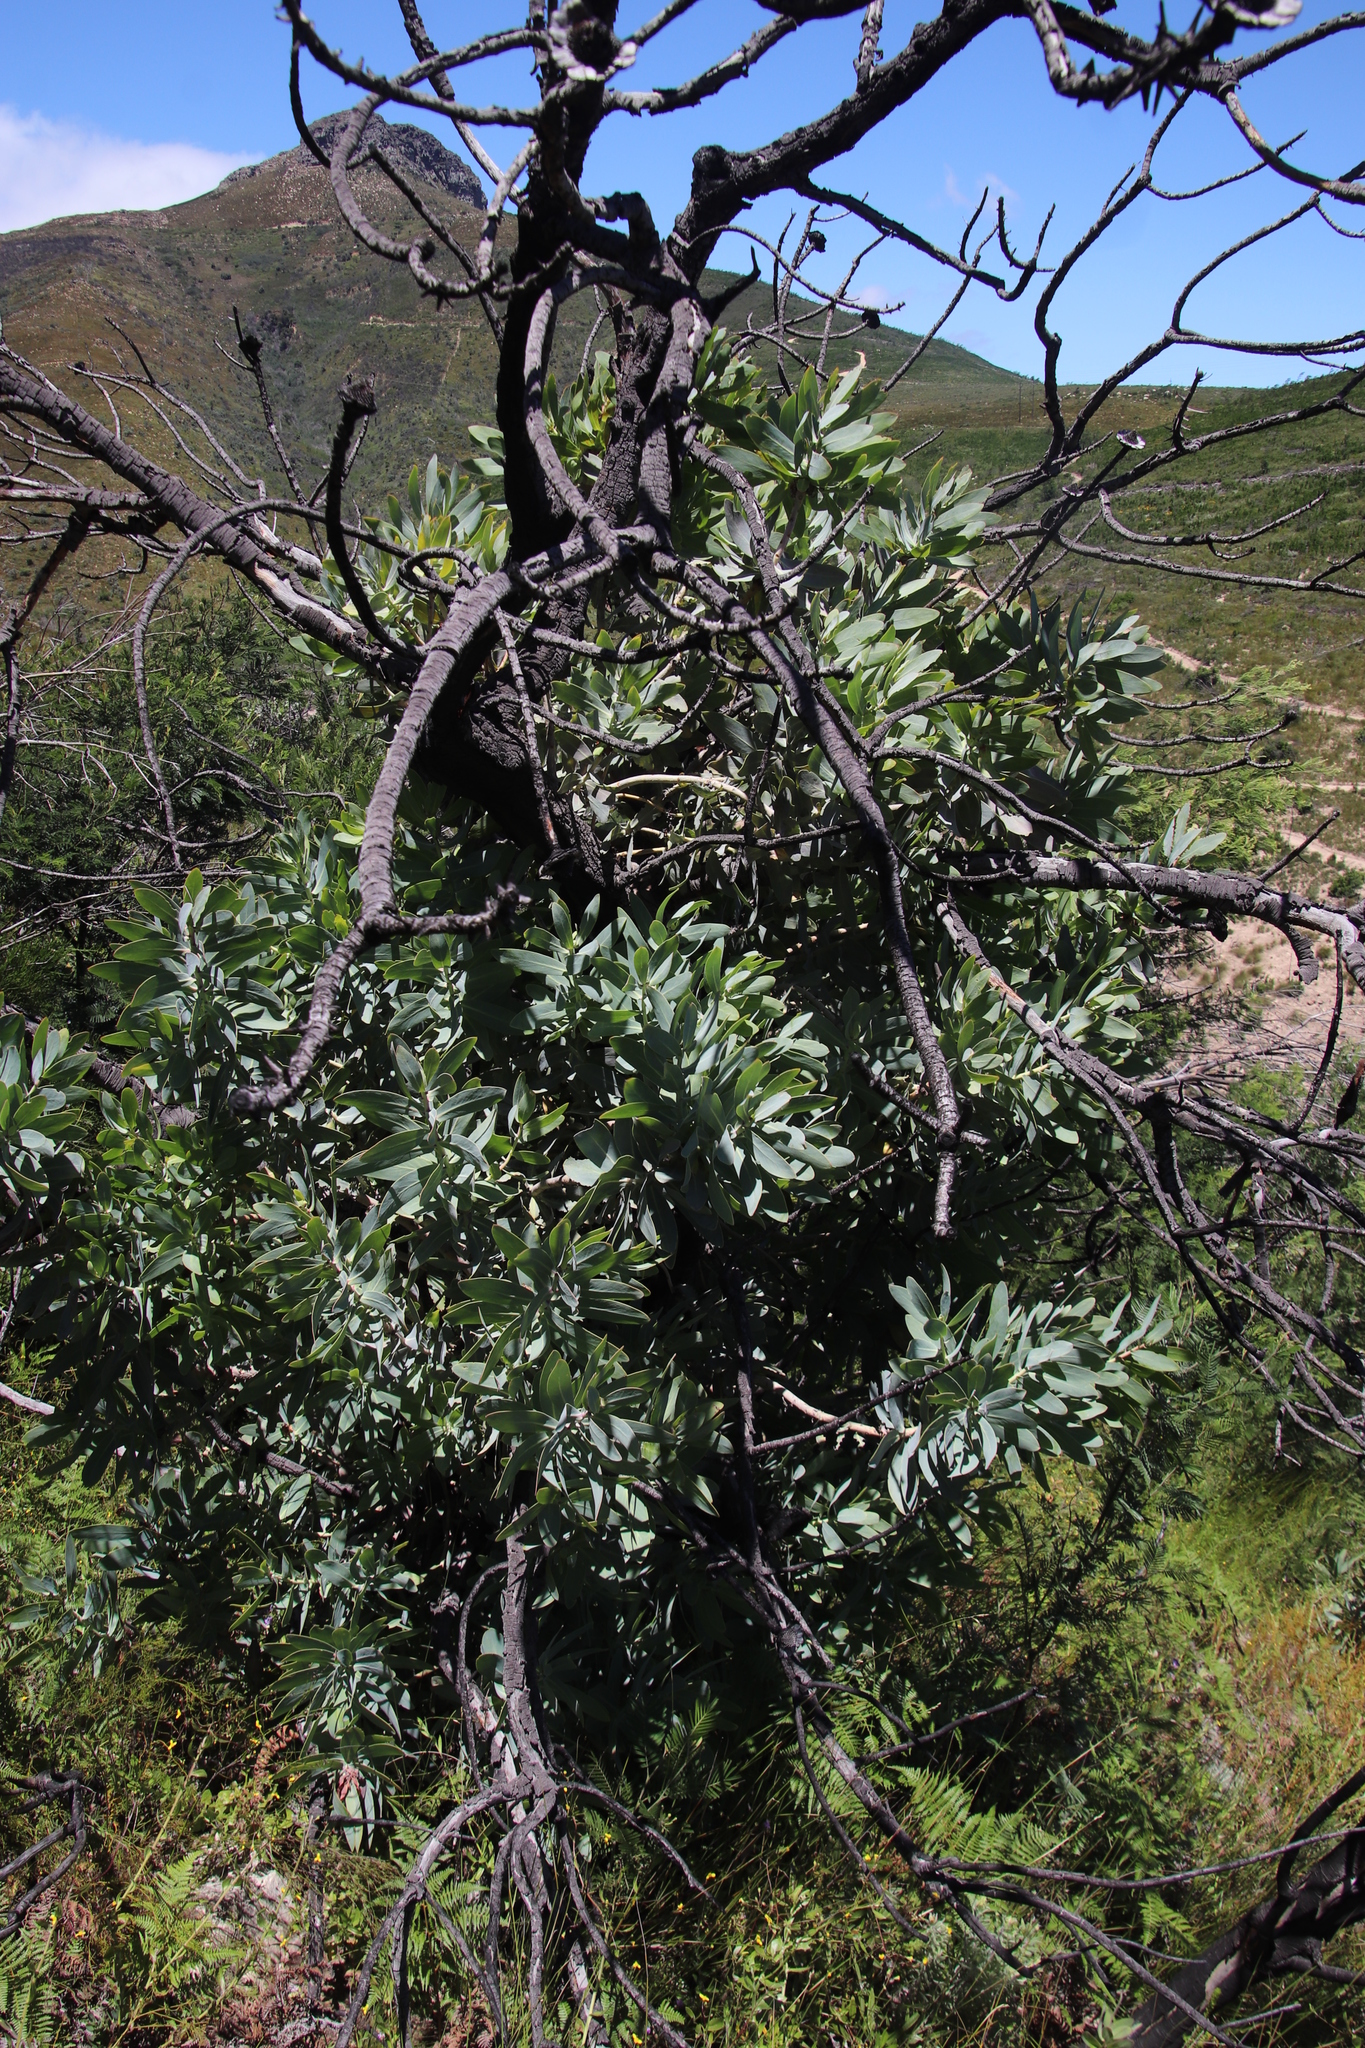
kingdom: Plantae
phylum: Tracheophyta
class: Magnoliopsida
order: Proteales
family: Proteaceae
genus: Protea
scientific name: Protea nitida
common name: Tree protea
